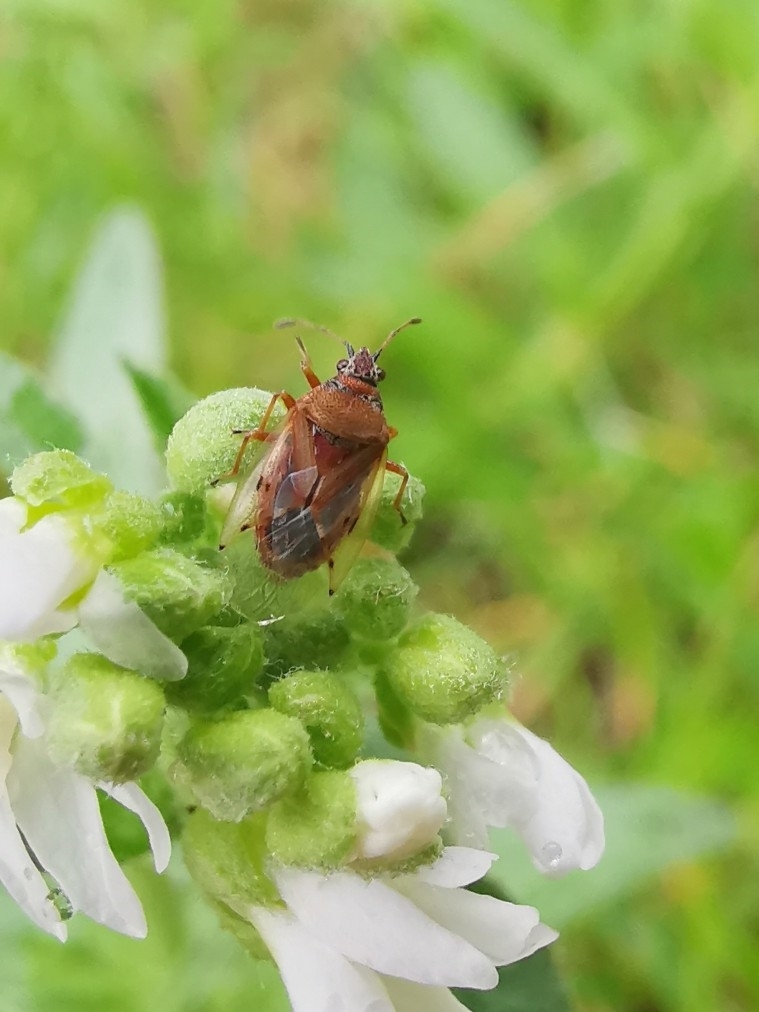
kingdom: Animalia
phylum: Arthropoda
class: Insecta
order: Hemiptera
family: Lygaeidae
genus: Kleidocerys
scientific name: Kleidocerys resedae
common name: Birch catkin bug
